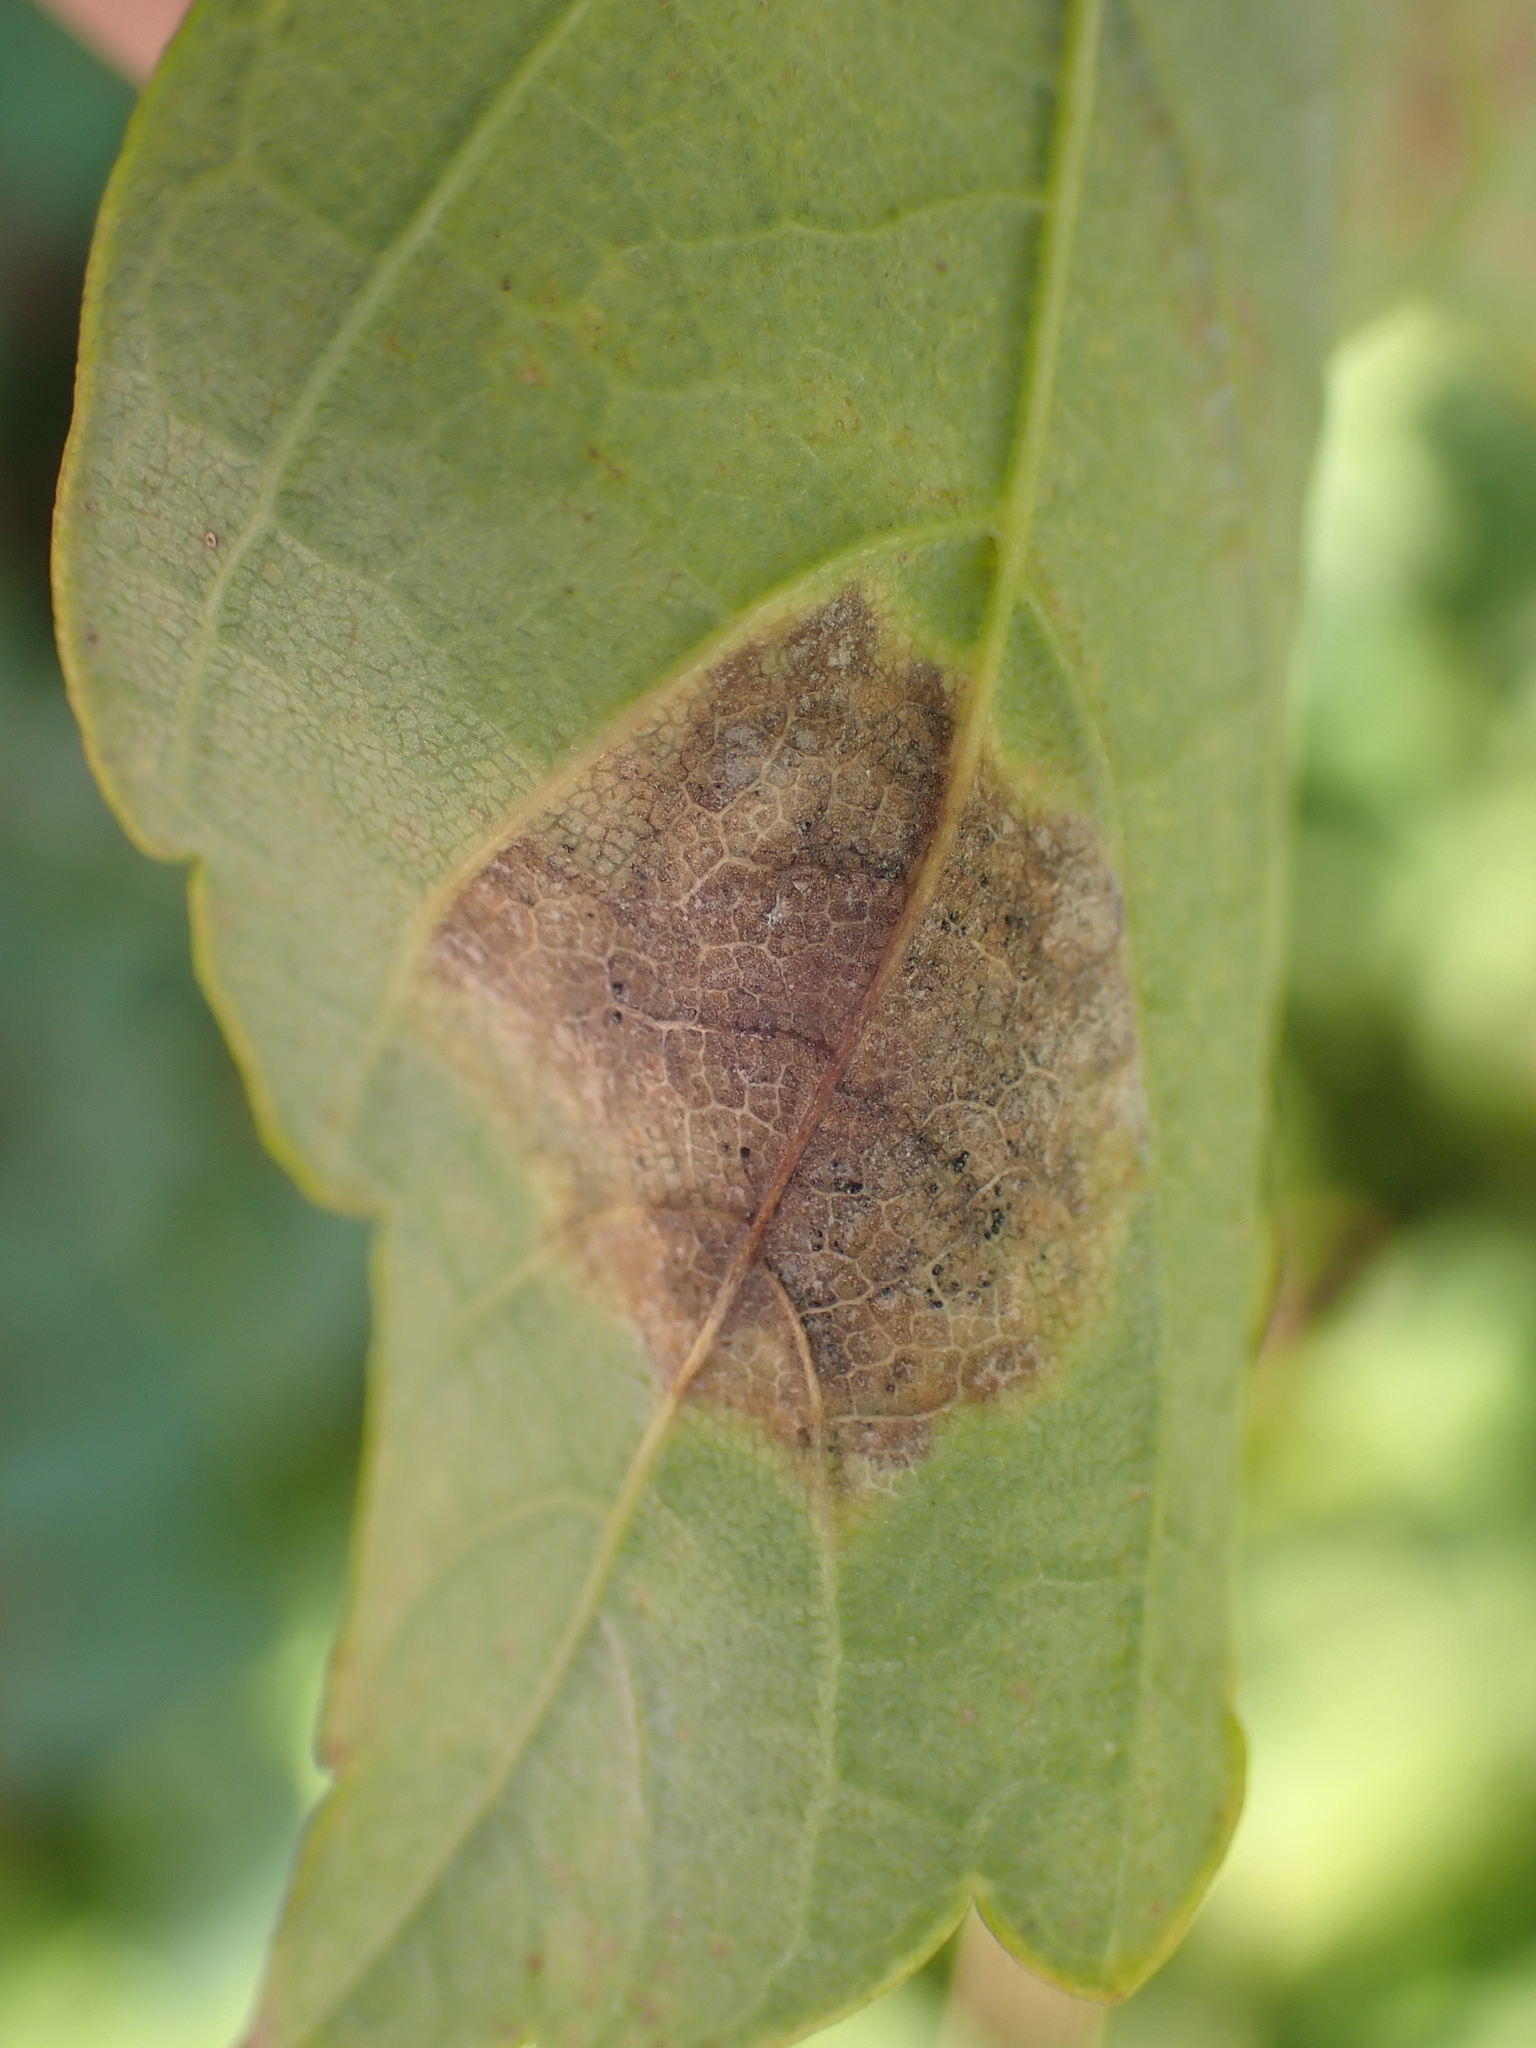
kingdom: Fungi
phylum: Ascomycota
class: Leotiomycetes
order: Rhytismatales
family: Rhytismataceae
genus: Rhytisma
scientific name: Rhytisma acerinum
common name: European tar spot
